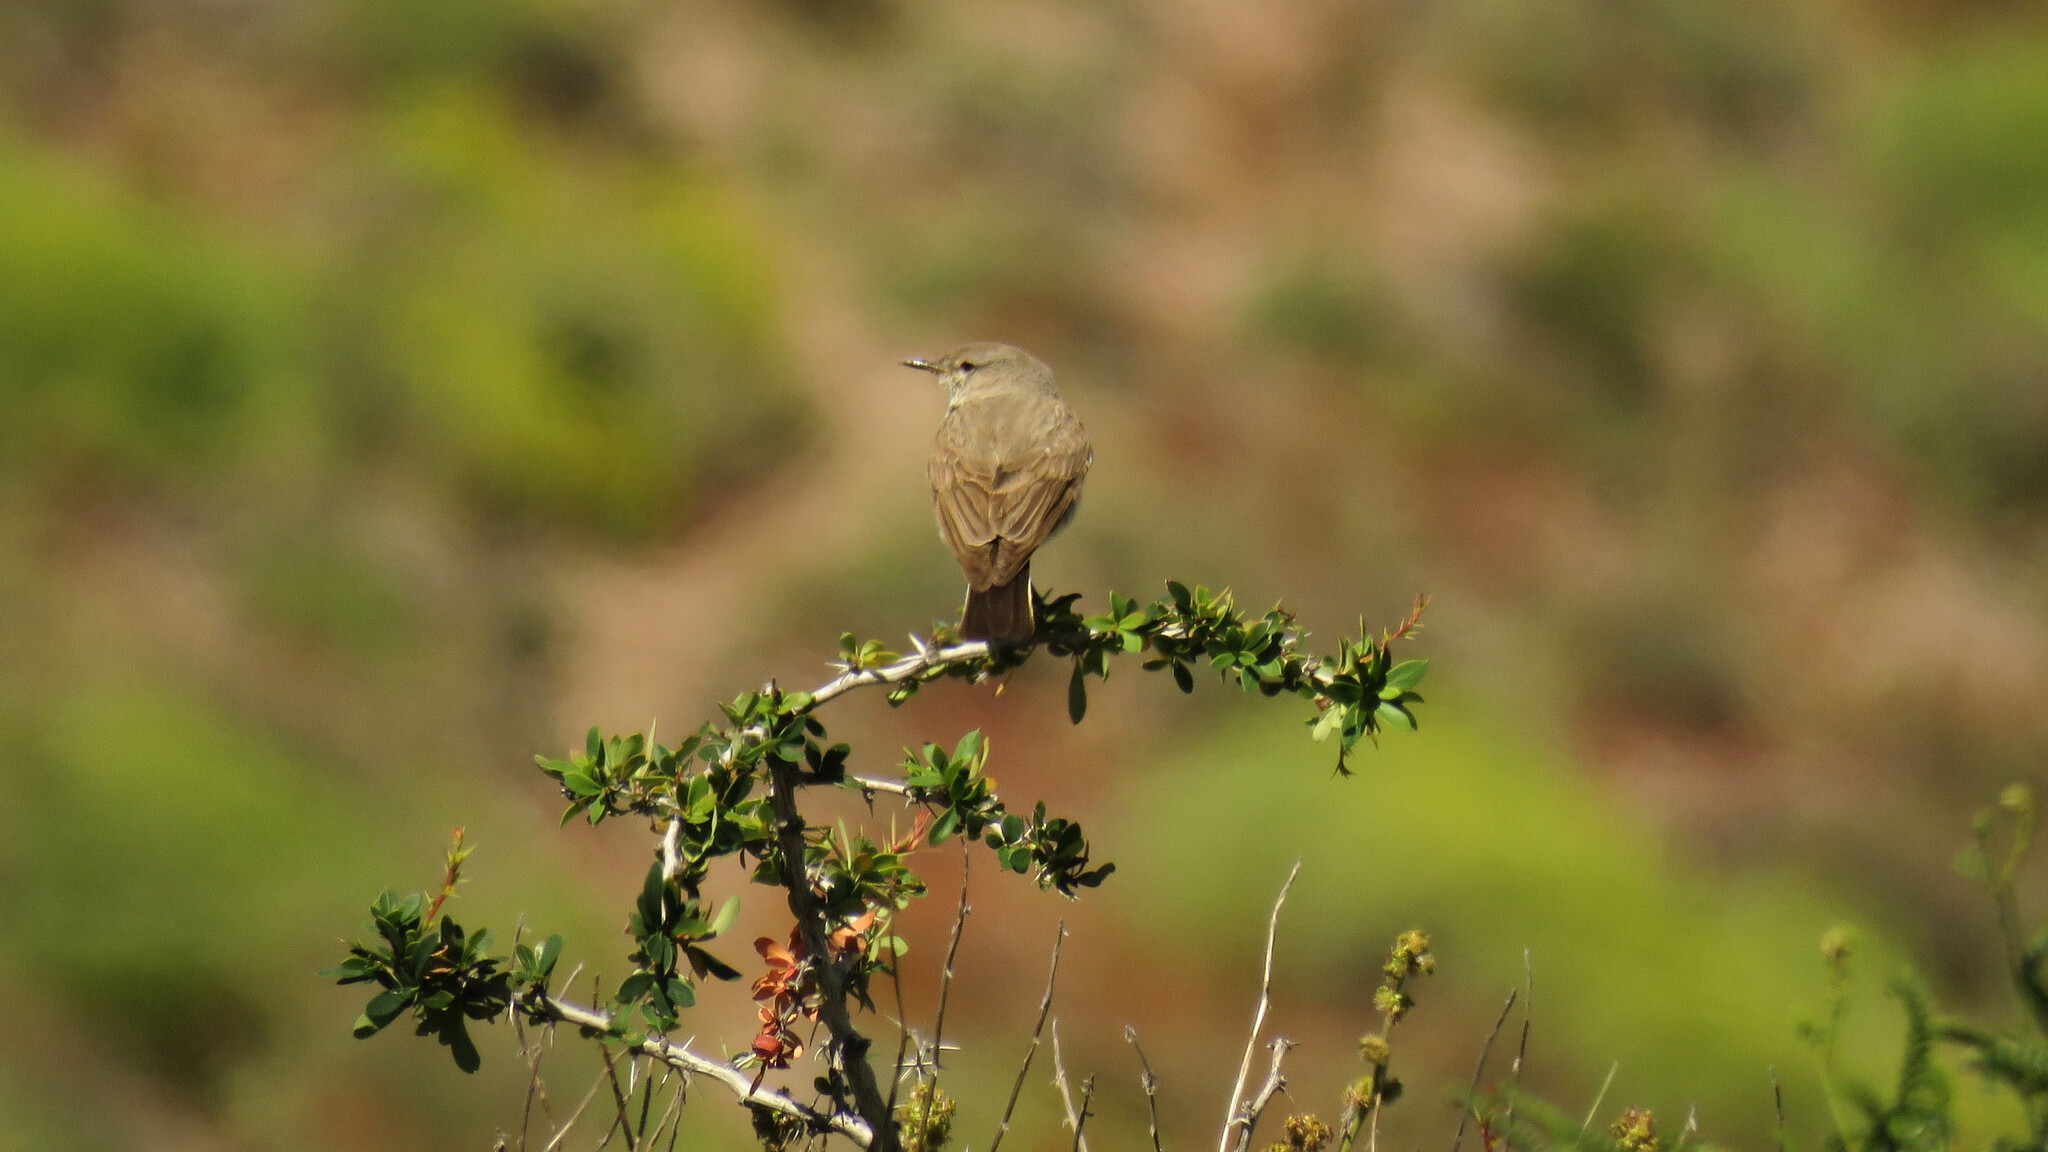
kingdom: Animalia
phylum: Chordata
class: Aves
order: Passeriformes
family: Tyrannidae
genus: Muscisaxicola
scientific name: Muscisaxicola maculirostris
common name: Spot-billed ground tyrant
